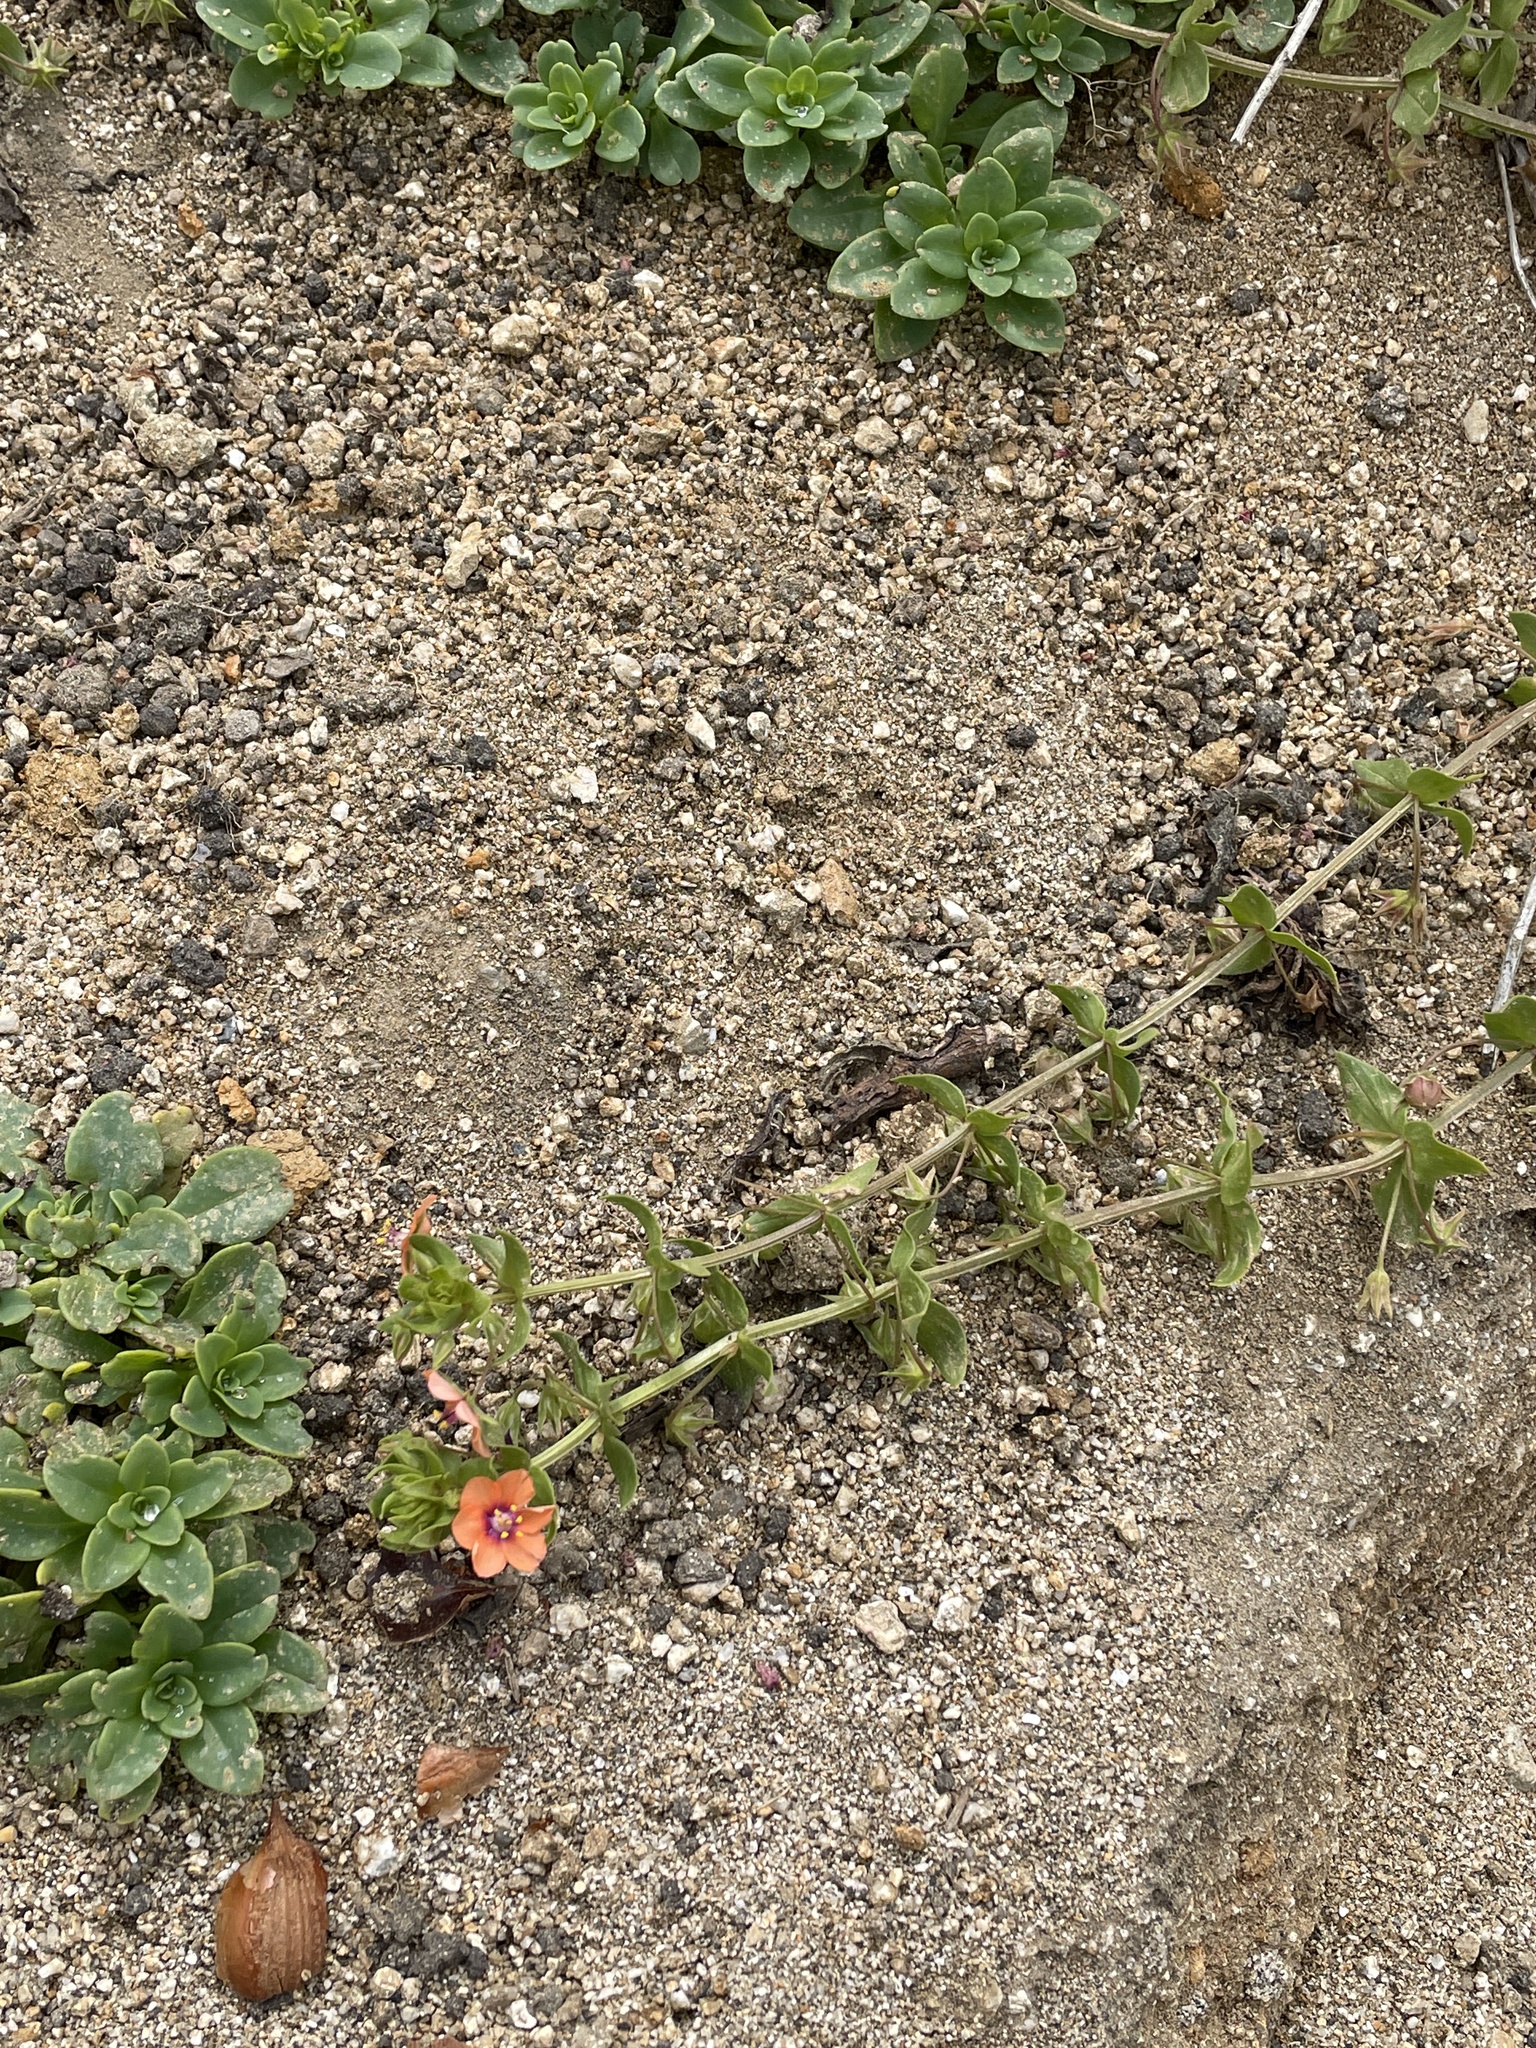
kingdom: Plantae
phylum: Tracheophyta
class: Magnoliopsida
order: Ericales
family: Primulaceae
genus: Lysimachia
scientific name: Lysimachia arvensis
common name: Scarlet pimpernel
